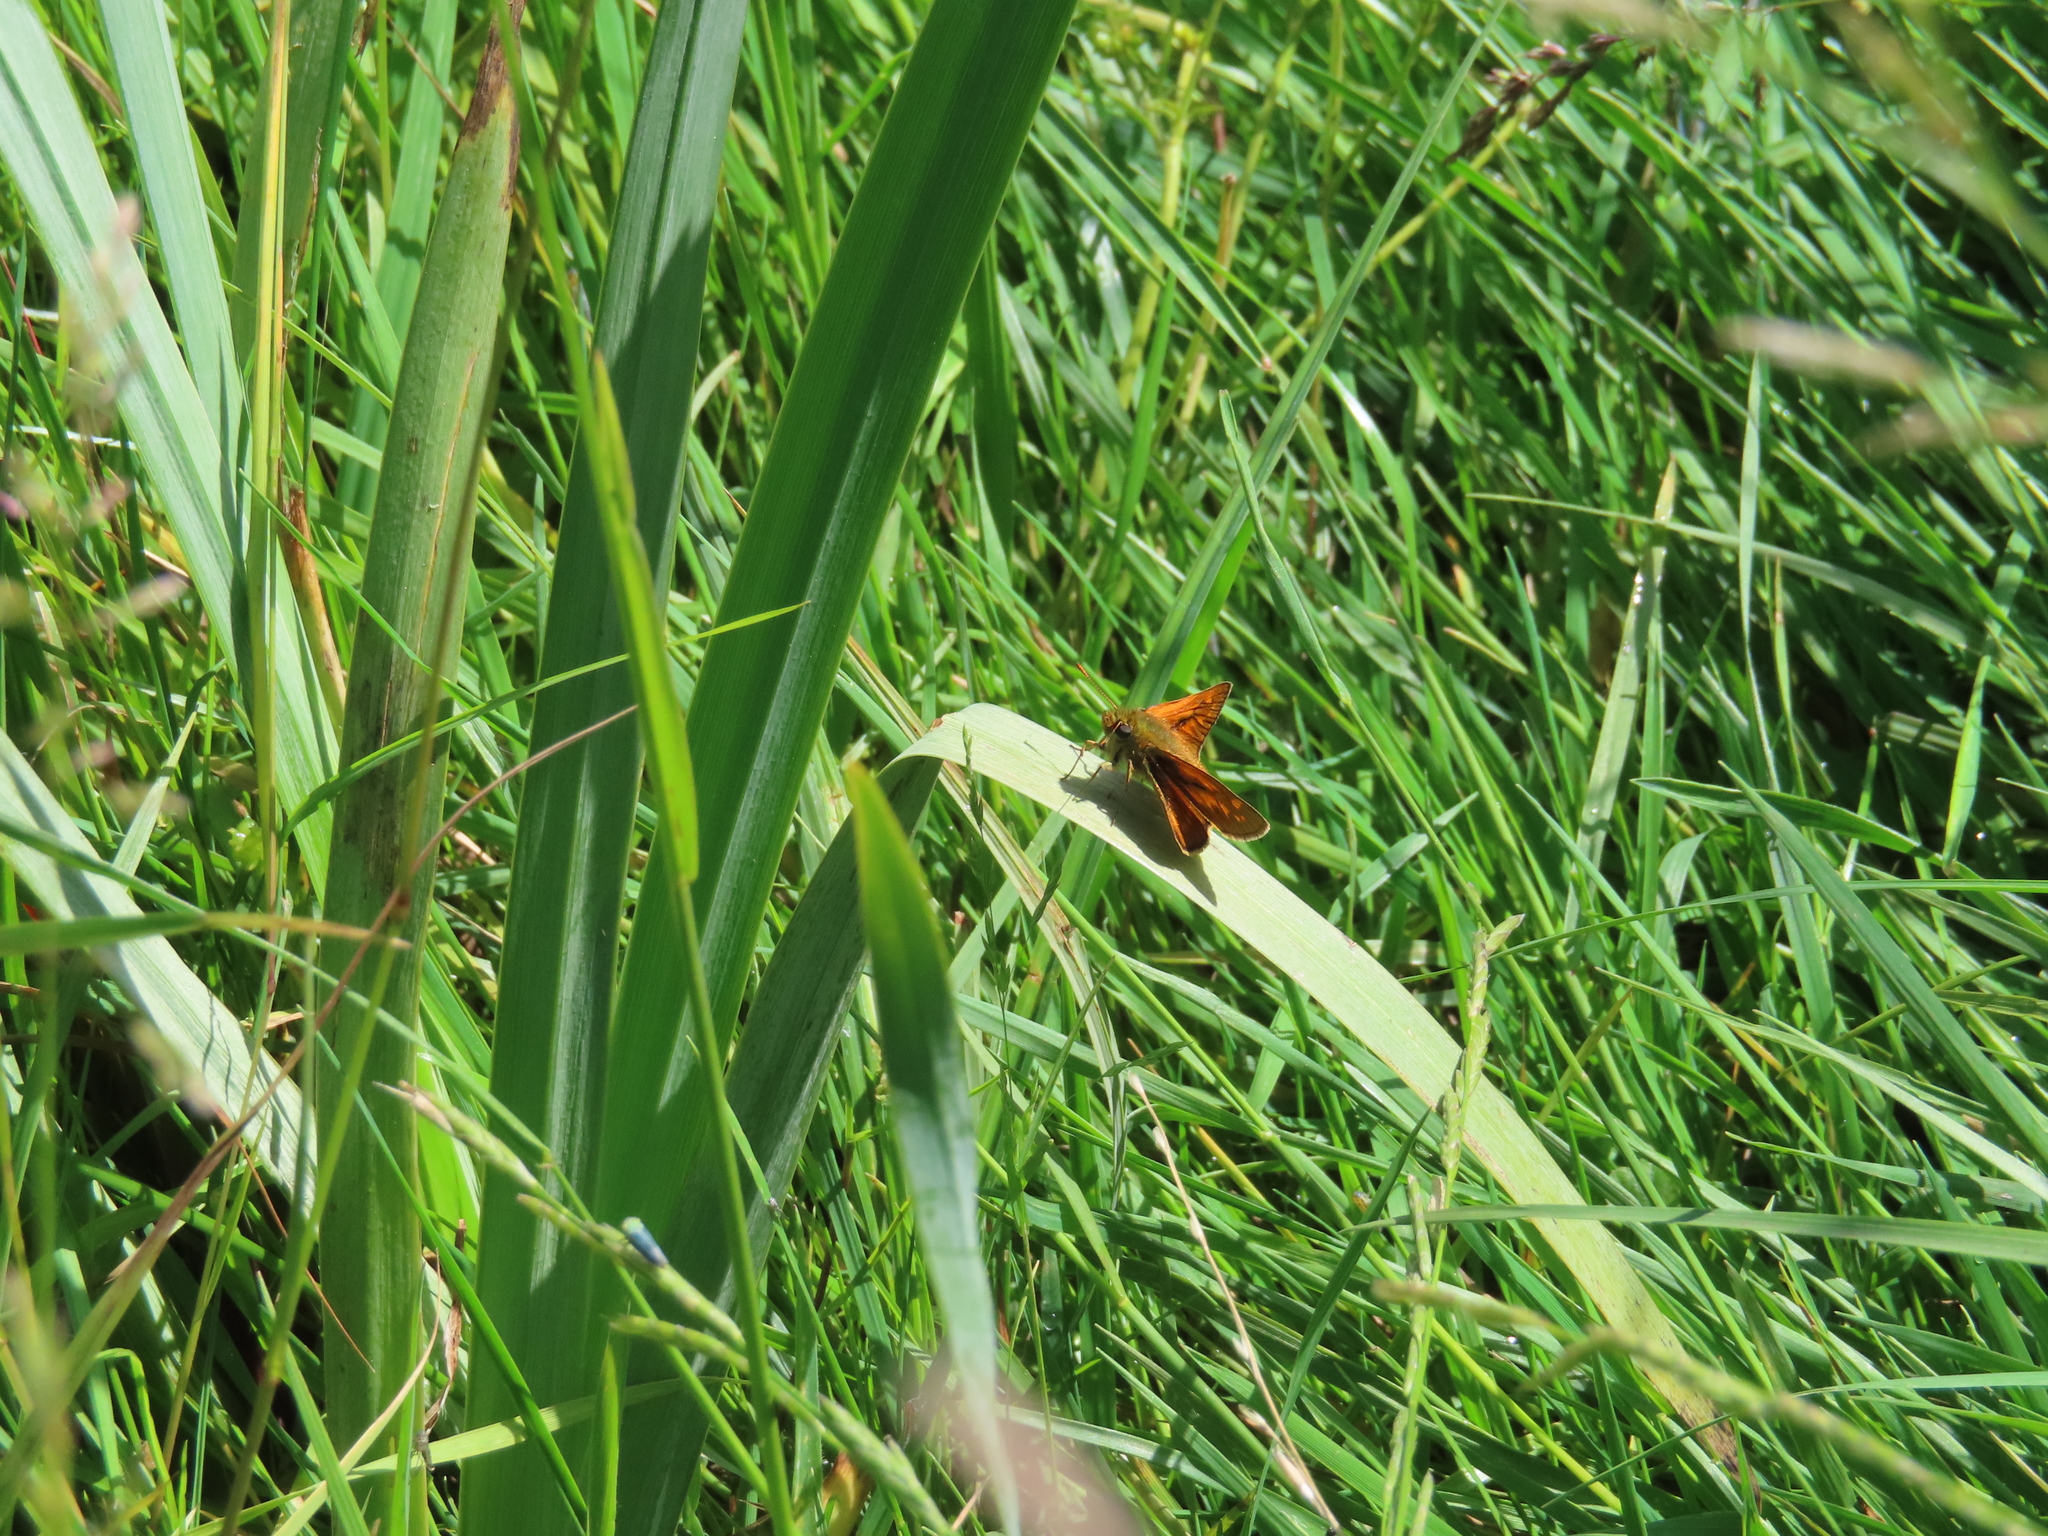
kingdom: Animalia
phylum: Arthropoda
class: Insecta
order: Lepidoptera
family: Hesperiidae
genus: Ochlodes
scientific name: Ochlodes venata
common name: Large skipper
